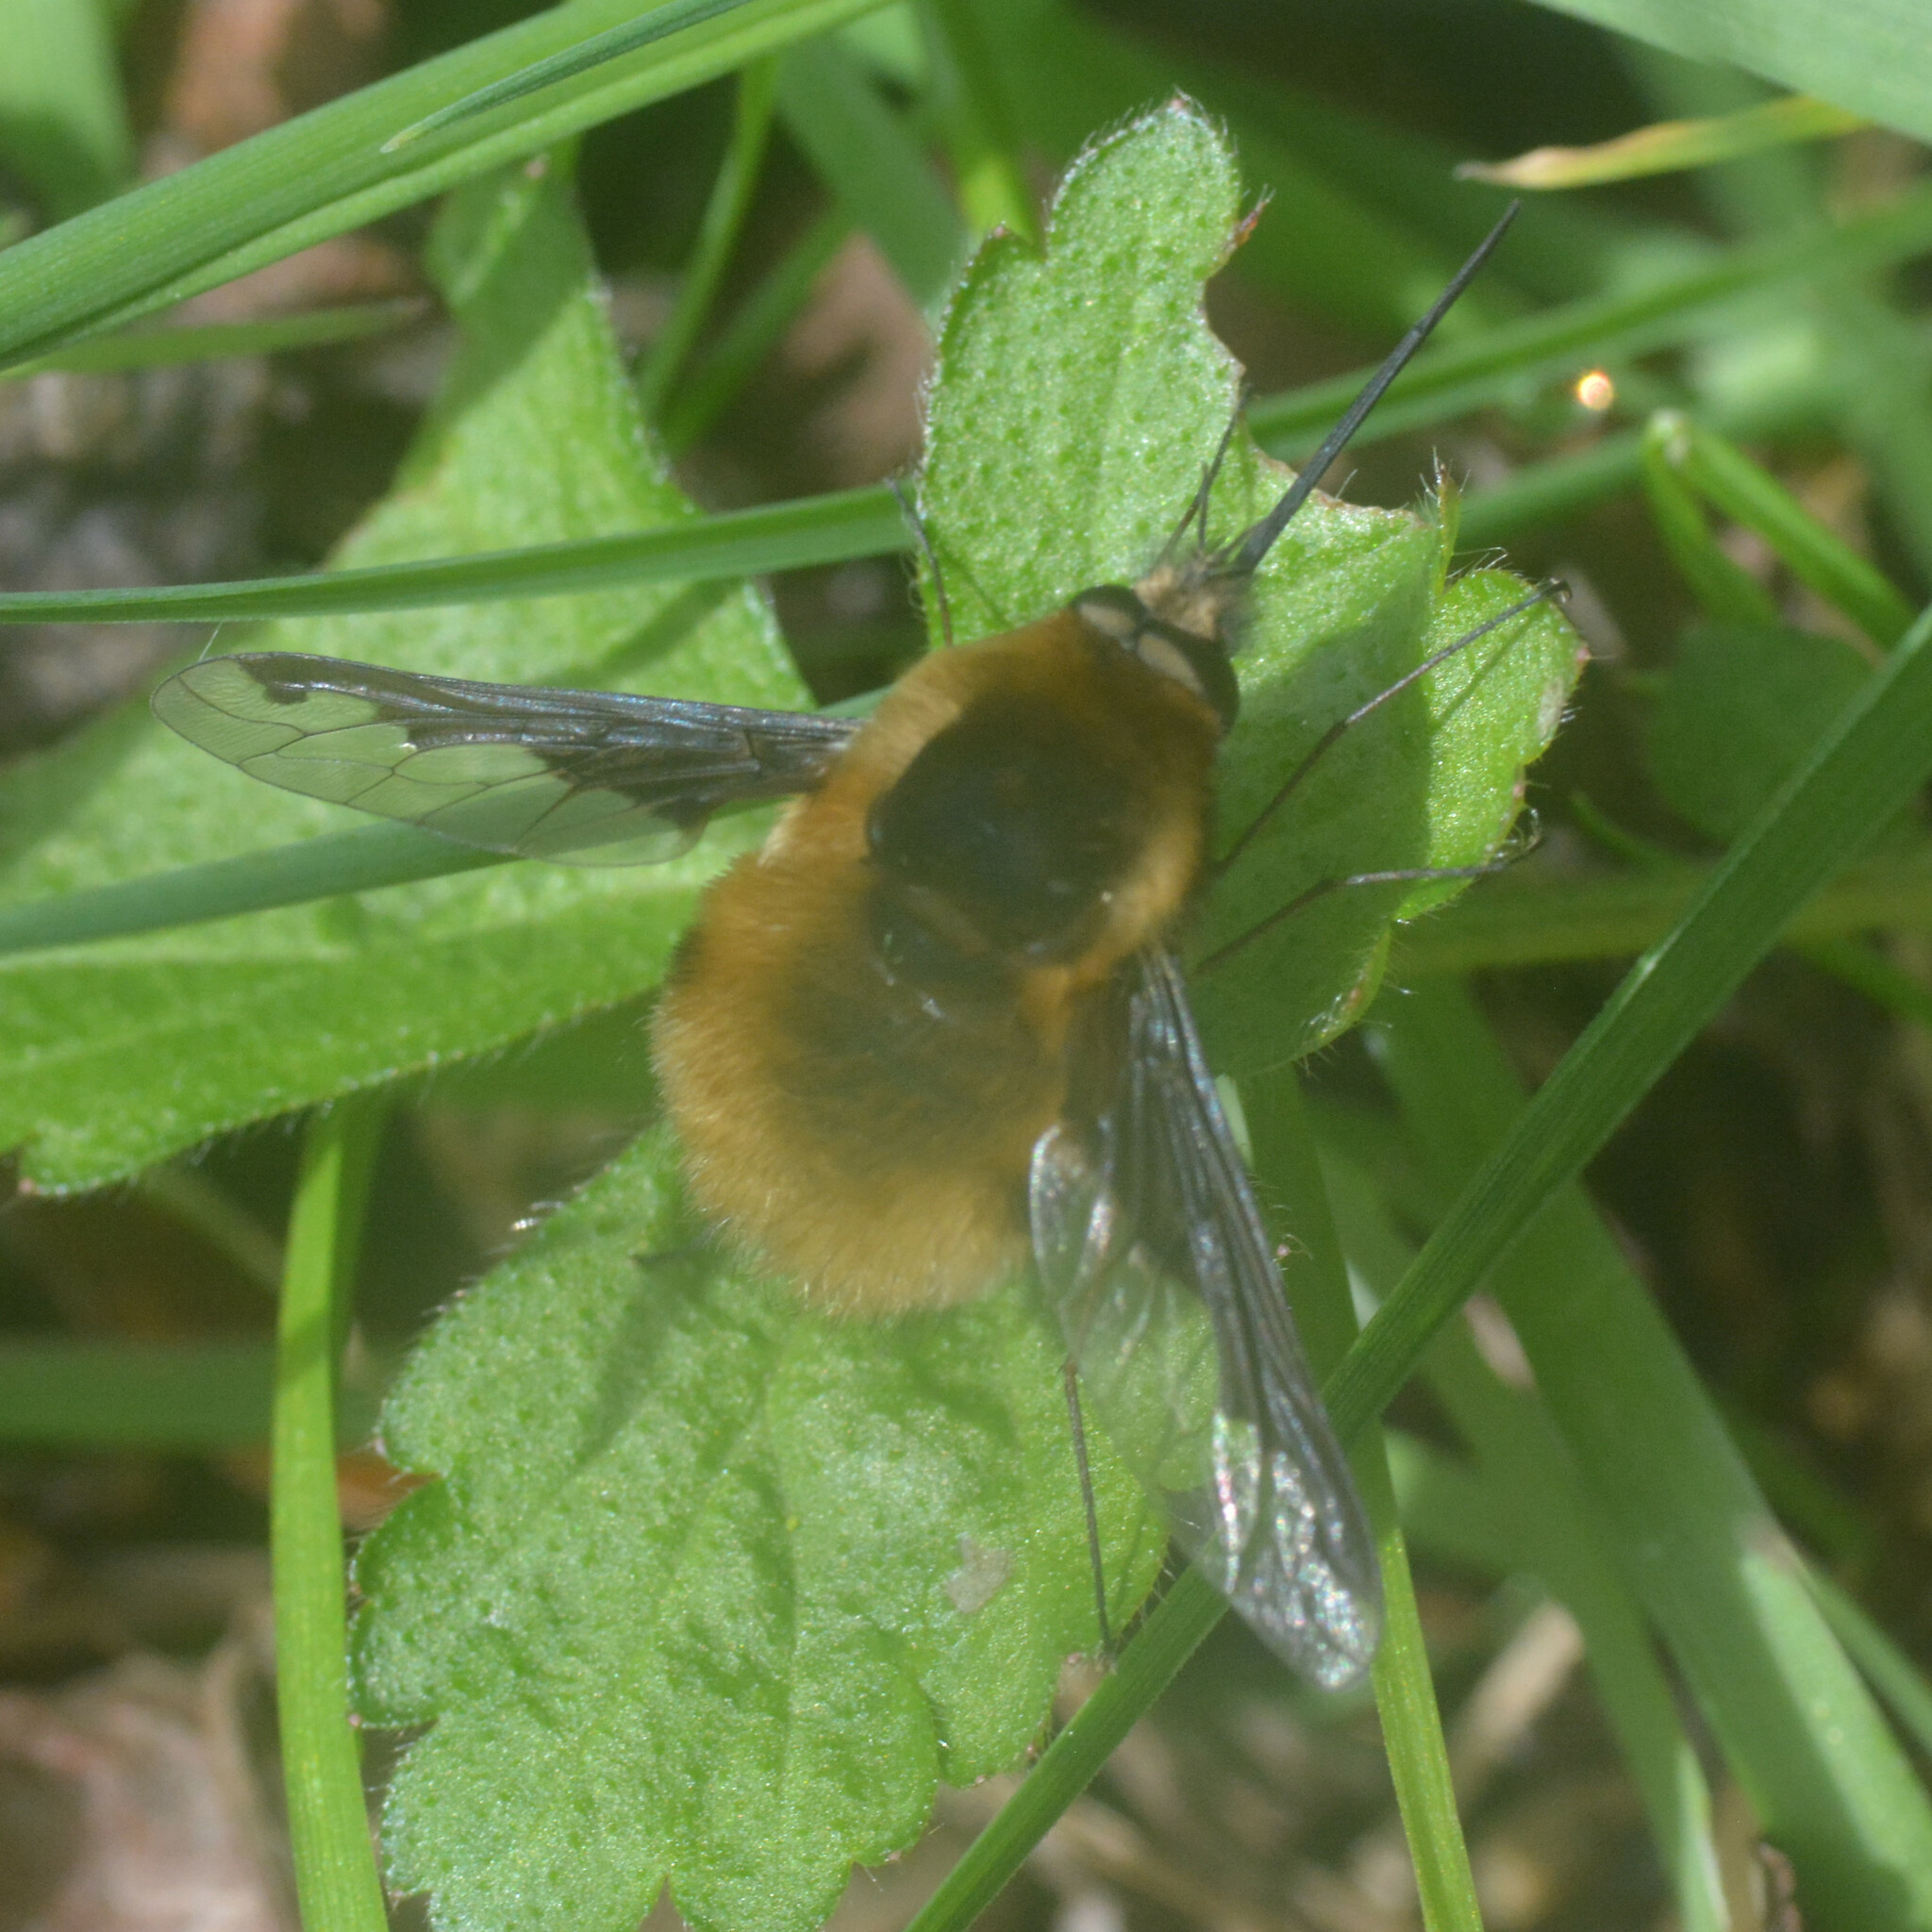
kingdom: Animalia
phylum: Arthropoda
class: Insecta
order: Diptera
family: Bombyliidae
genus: Bombylius
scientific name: Bombylius major
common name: Bee fly
